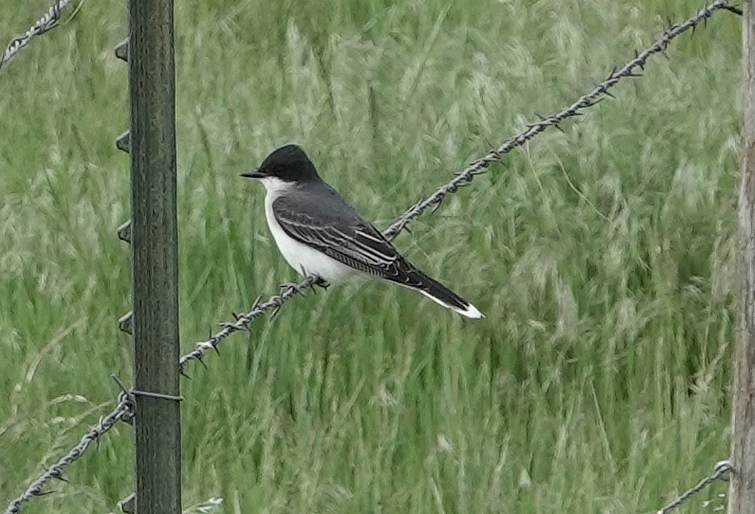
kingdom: Animalia
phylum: Chordata
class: Aves
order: Passeriformes
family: Tyrannidae
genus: Tyrannus
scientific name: Tyrannus tyrannus
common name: Eastern kingbird
